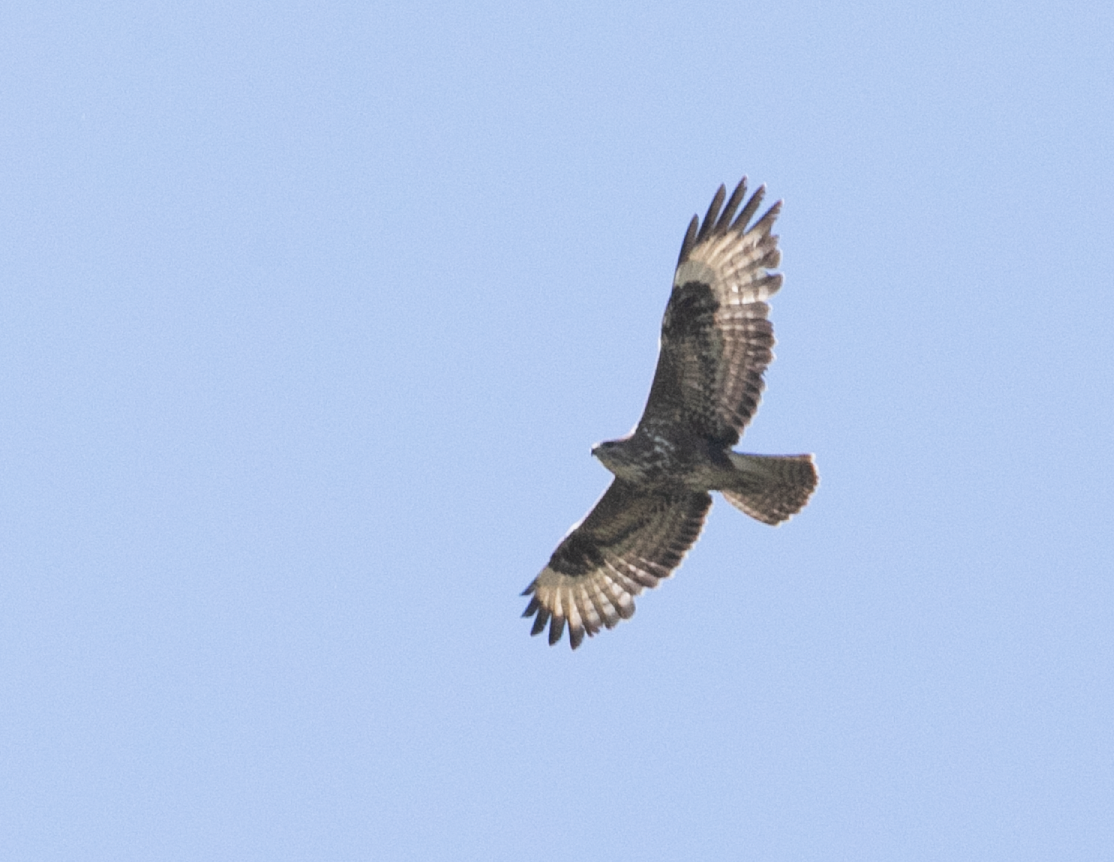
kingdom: Animalia
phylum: Chordata
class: Aves
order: Accipitriformes
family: Accipitridae
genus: Buteo
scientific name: Buteo buteo
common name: Common buzzard
